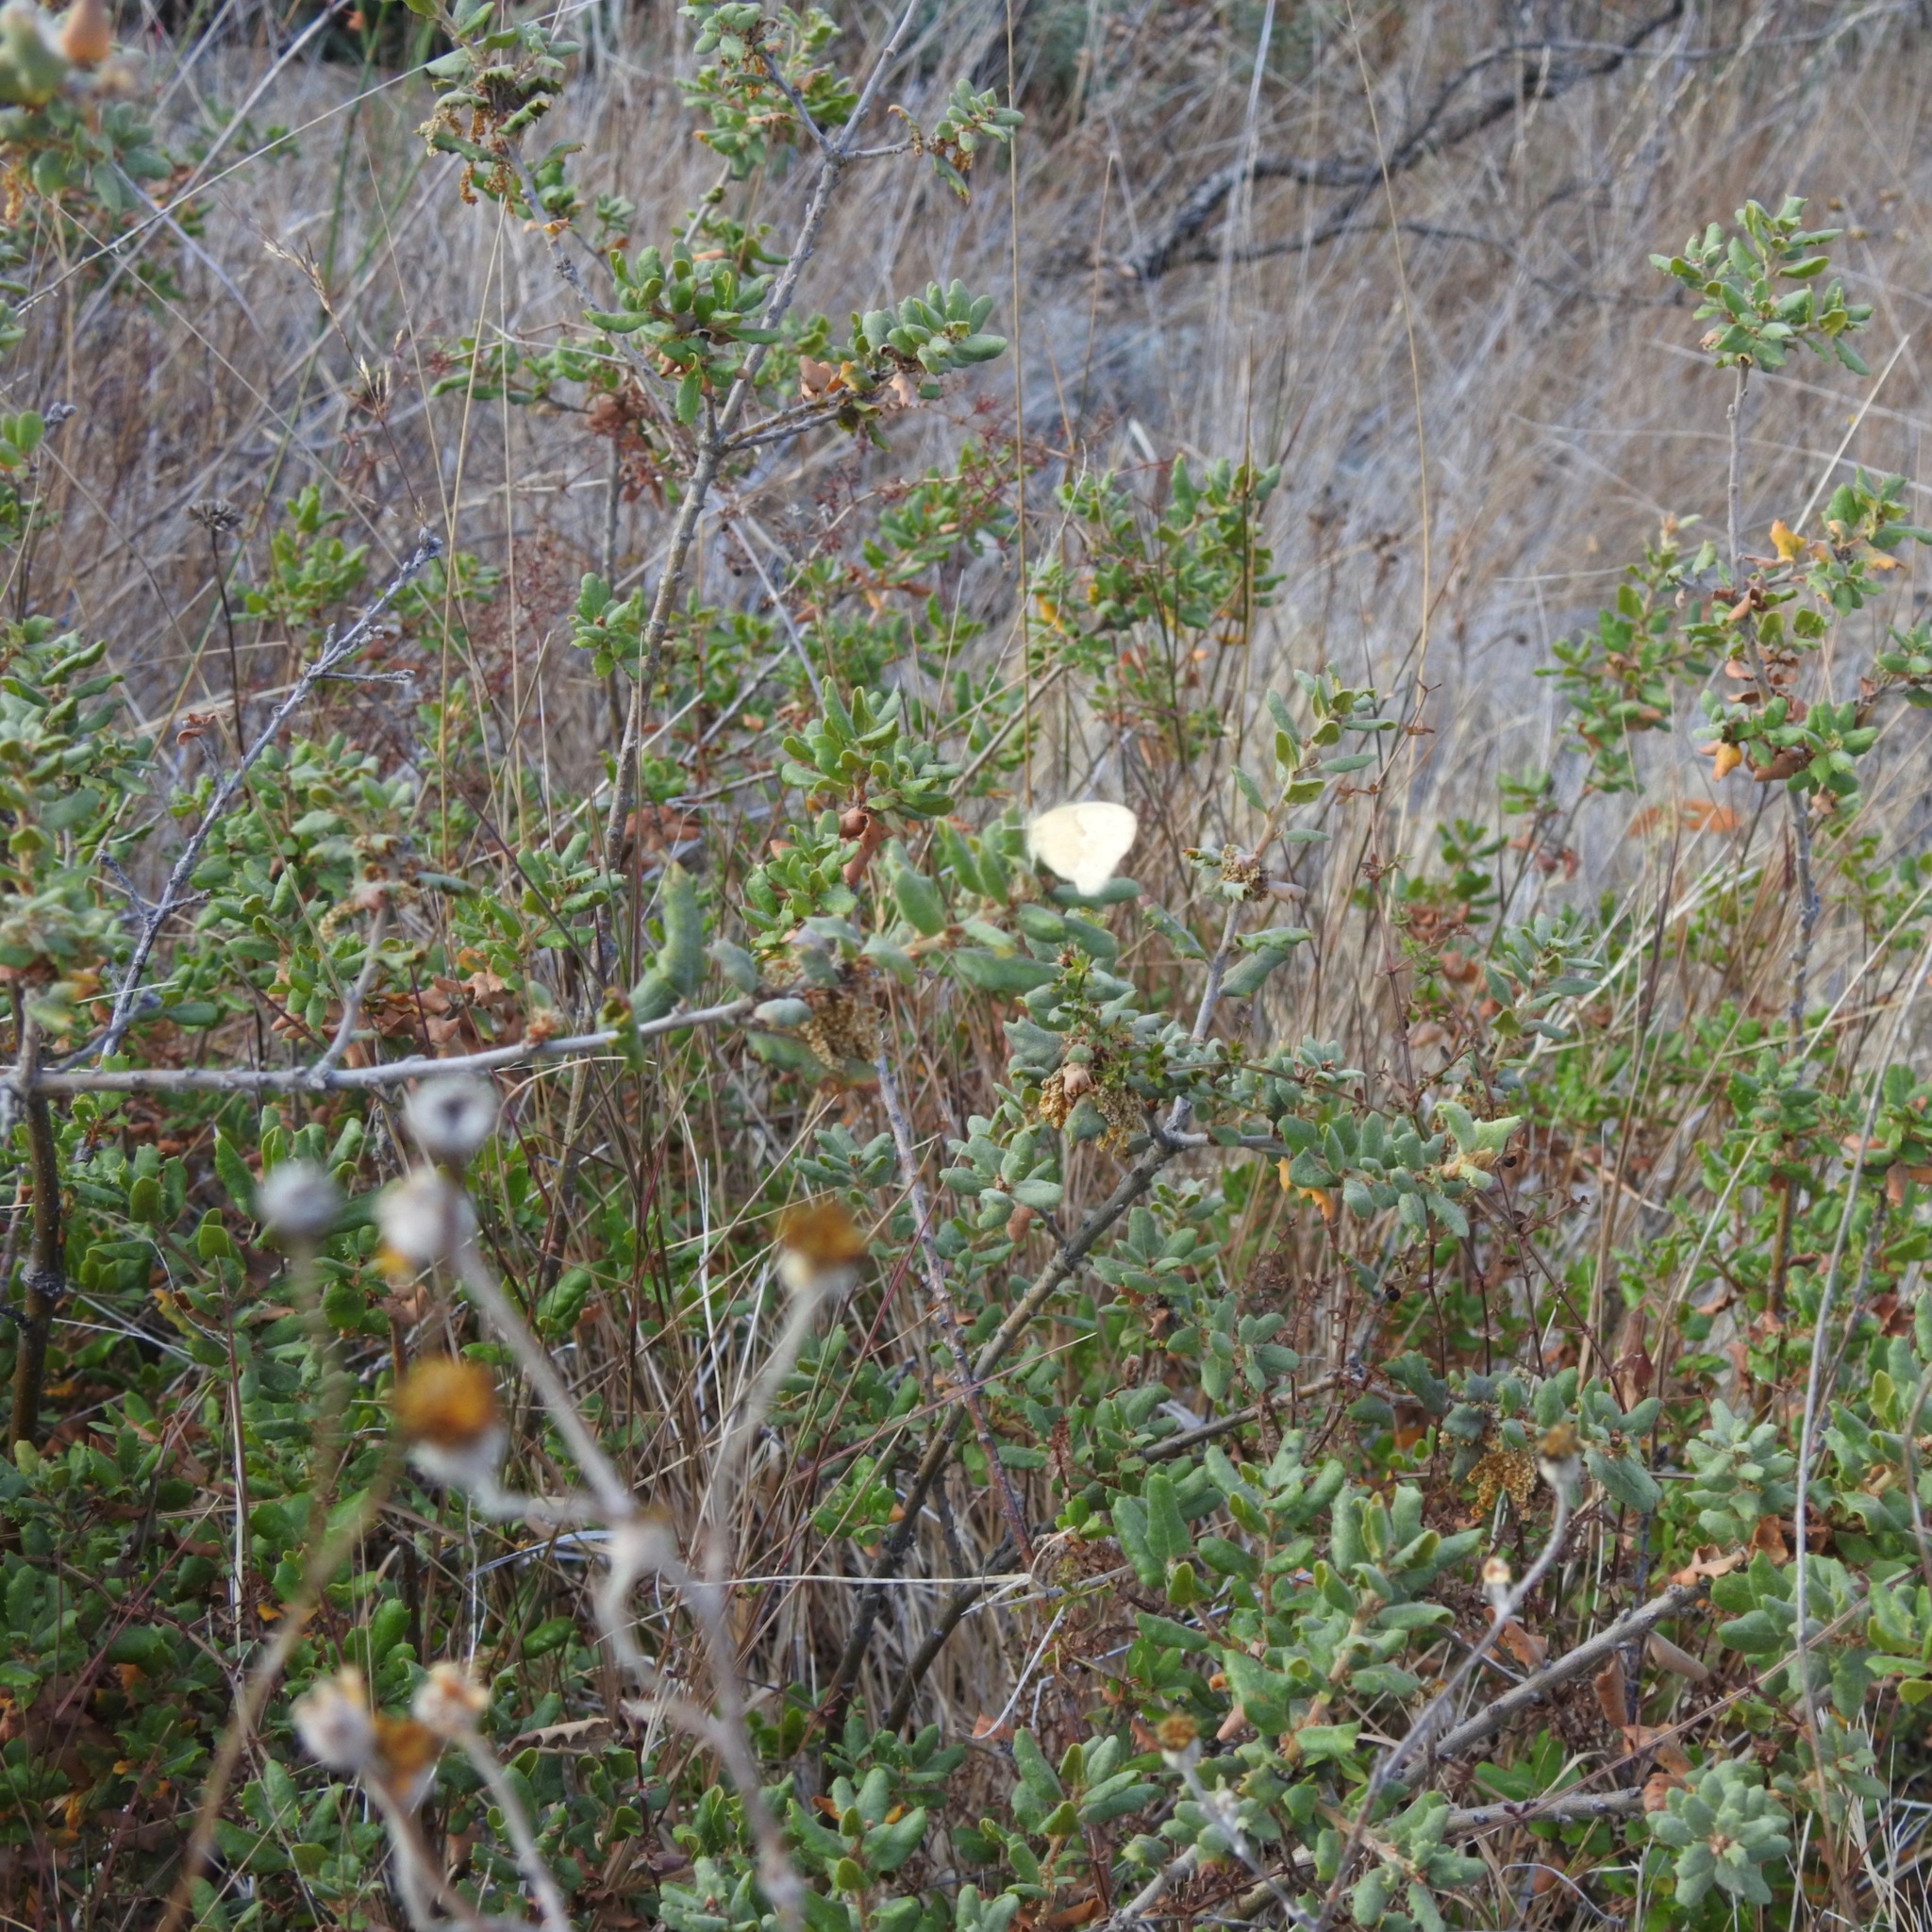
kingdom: Animalia
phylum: Arthropoda
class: Insecta
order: Lepidoptera
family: Nymphalidae
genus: Coenonympha
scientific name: Coenonympha california
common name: Common ringlet
